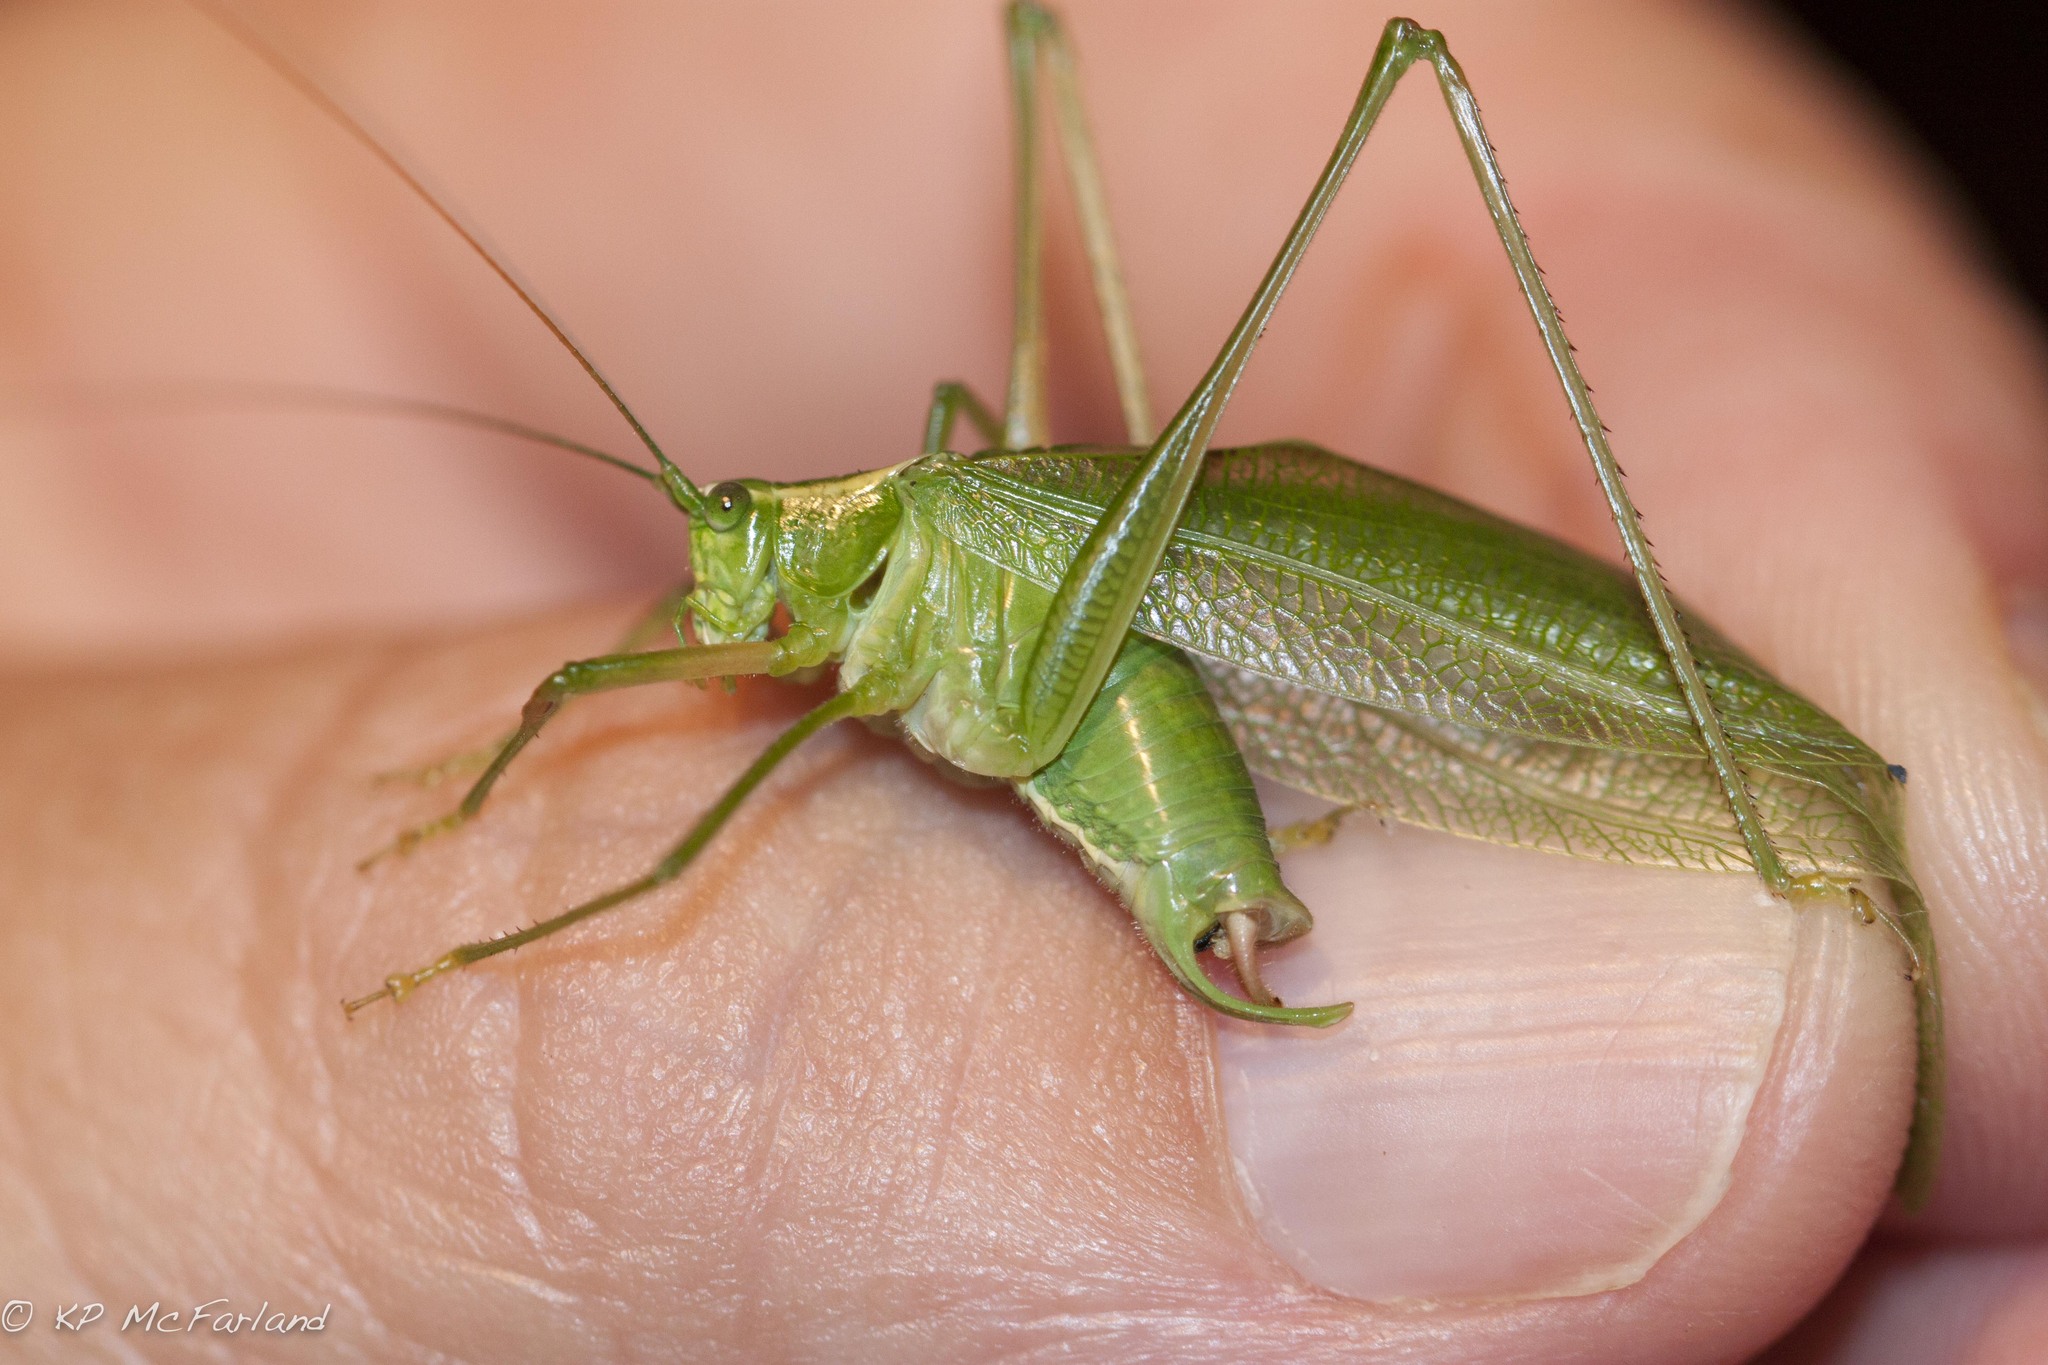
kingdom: Animalia
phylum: Arthropoda
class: Insecta
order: Orthoptera
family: Tettigoniidae
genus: Scudderia
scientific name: Scudderia septentrionalis
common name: Northern bush-katydid
